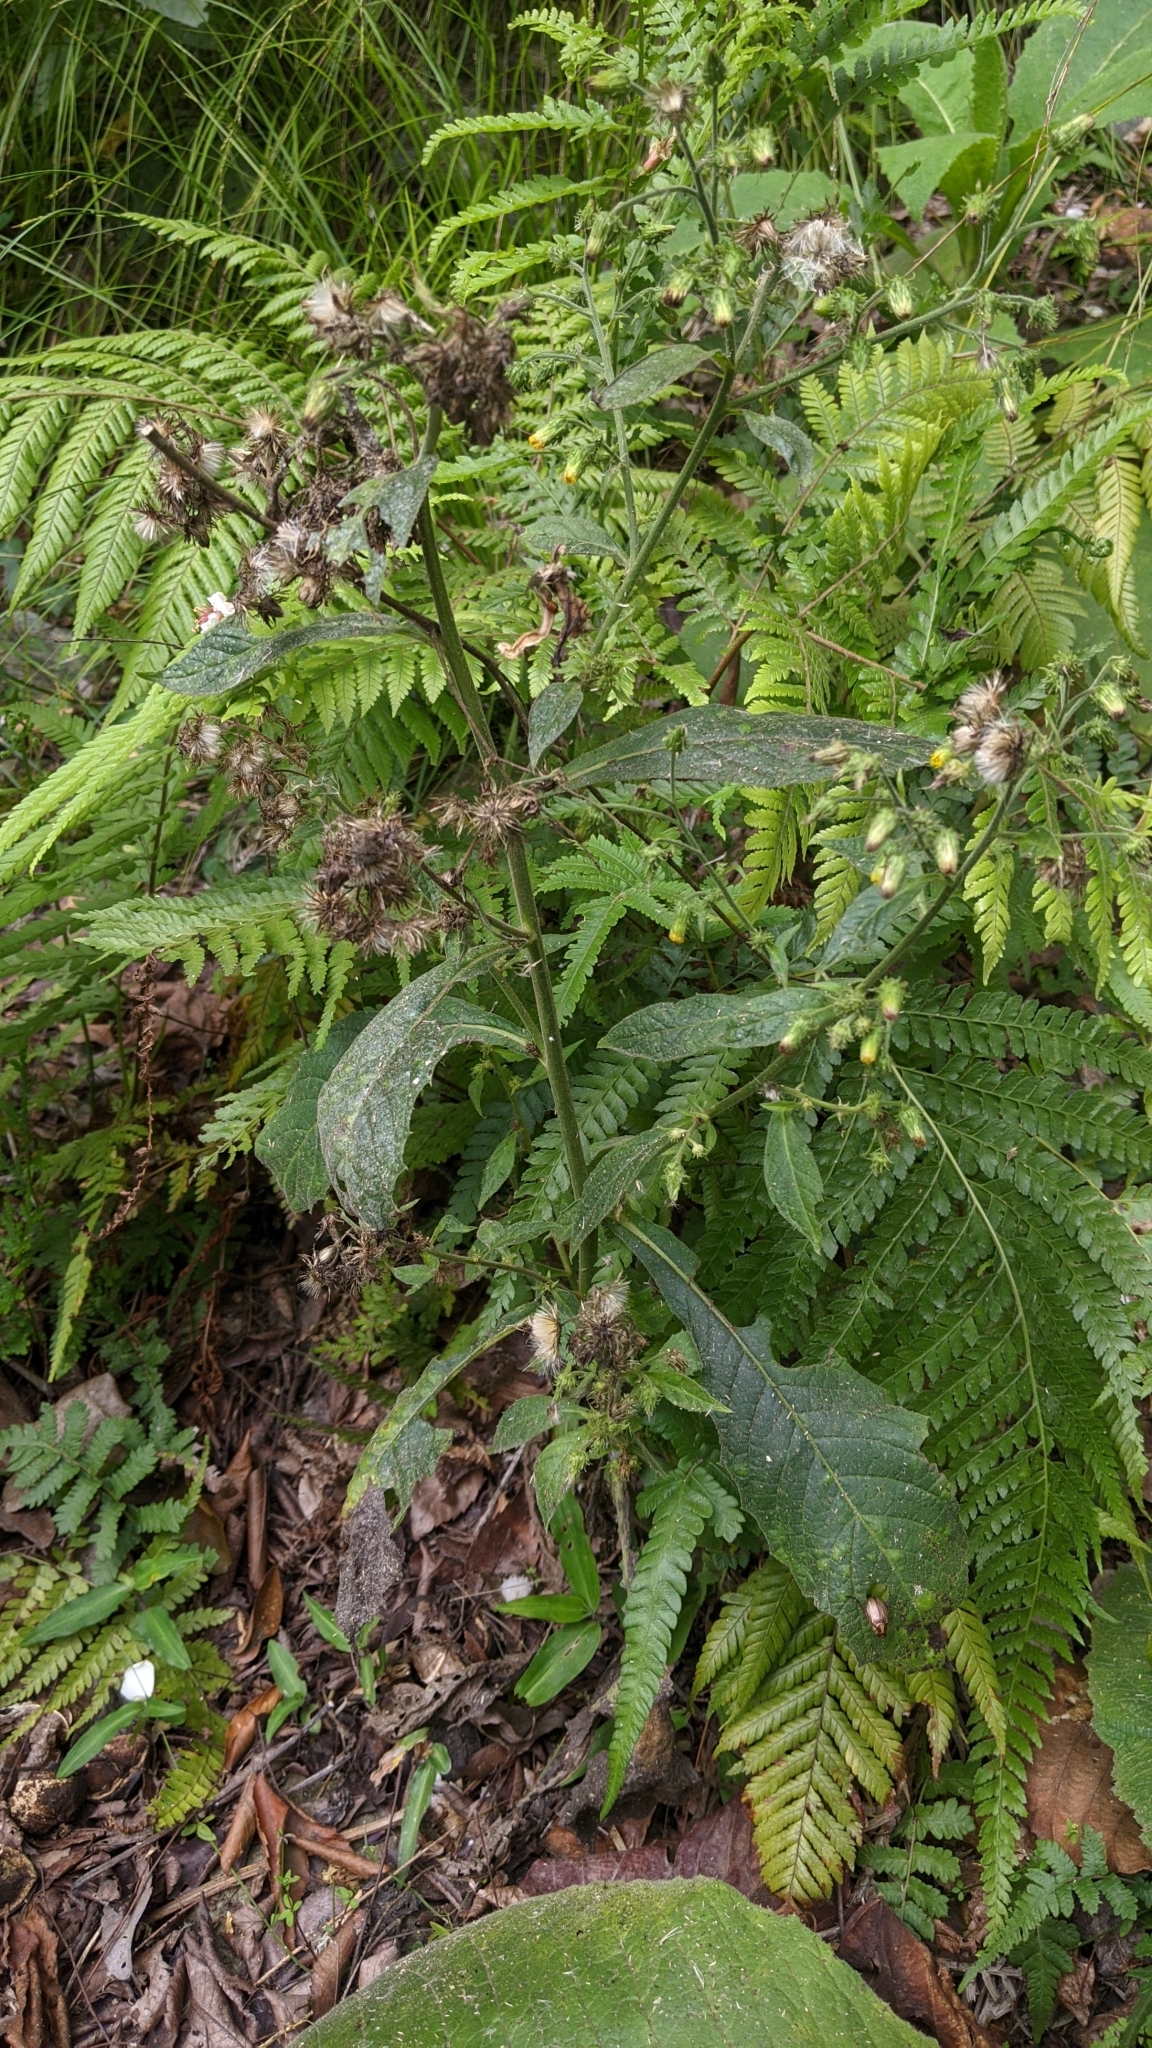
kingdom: Plantae
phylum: Tracheophyta
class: Magnoliopsida
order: Asterales
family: Asteraceae
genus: Blumea
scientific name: Blumea aromatica
